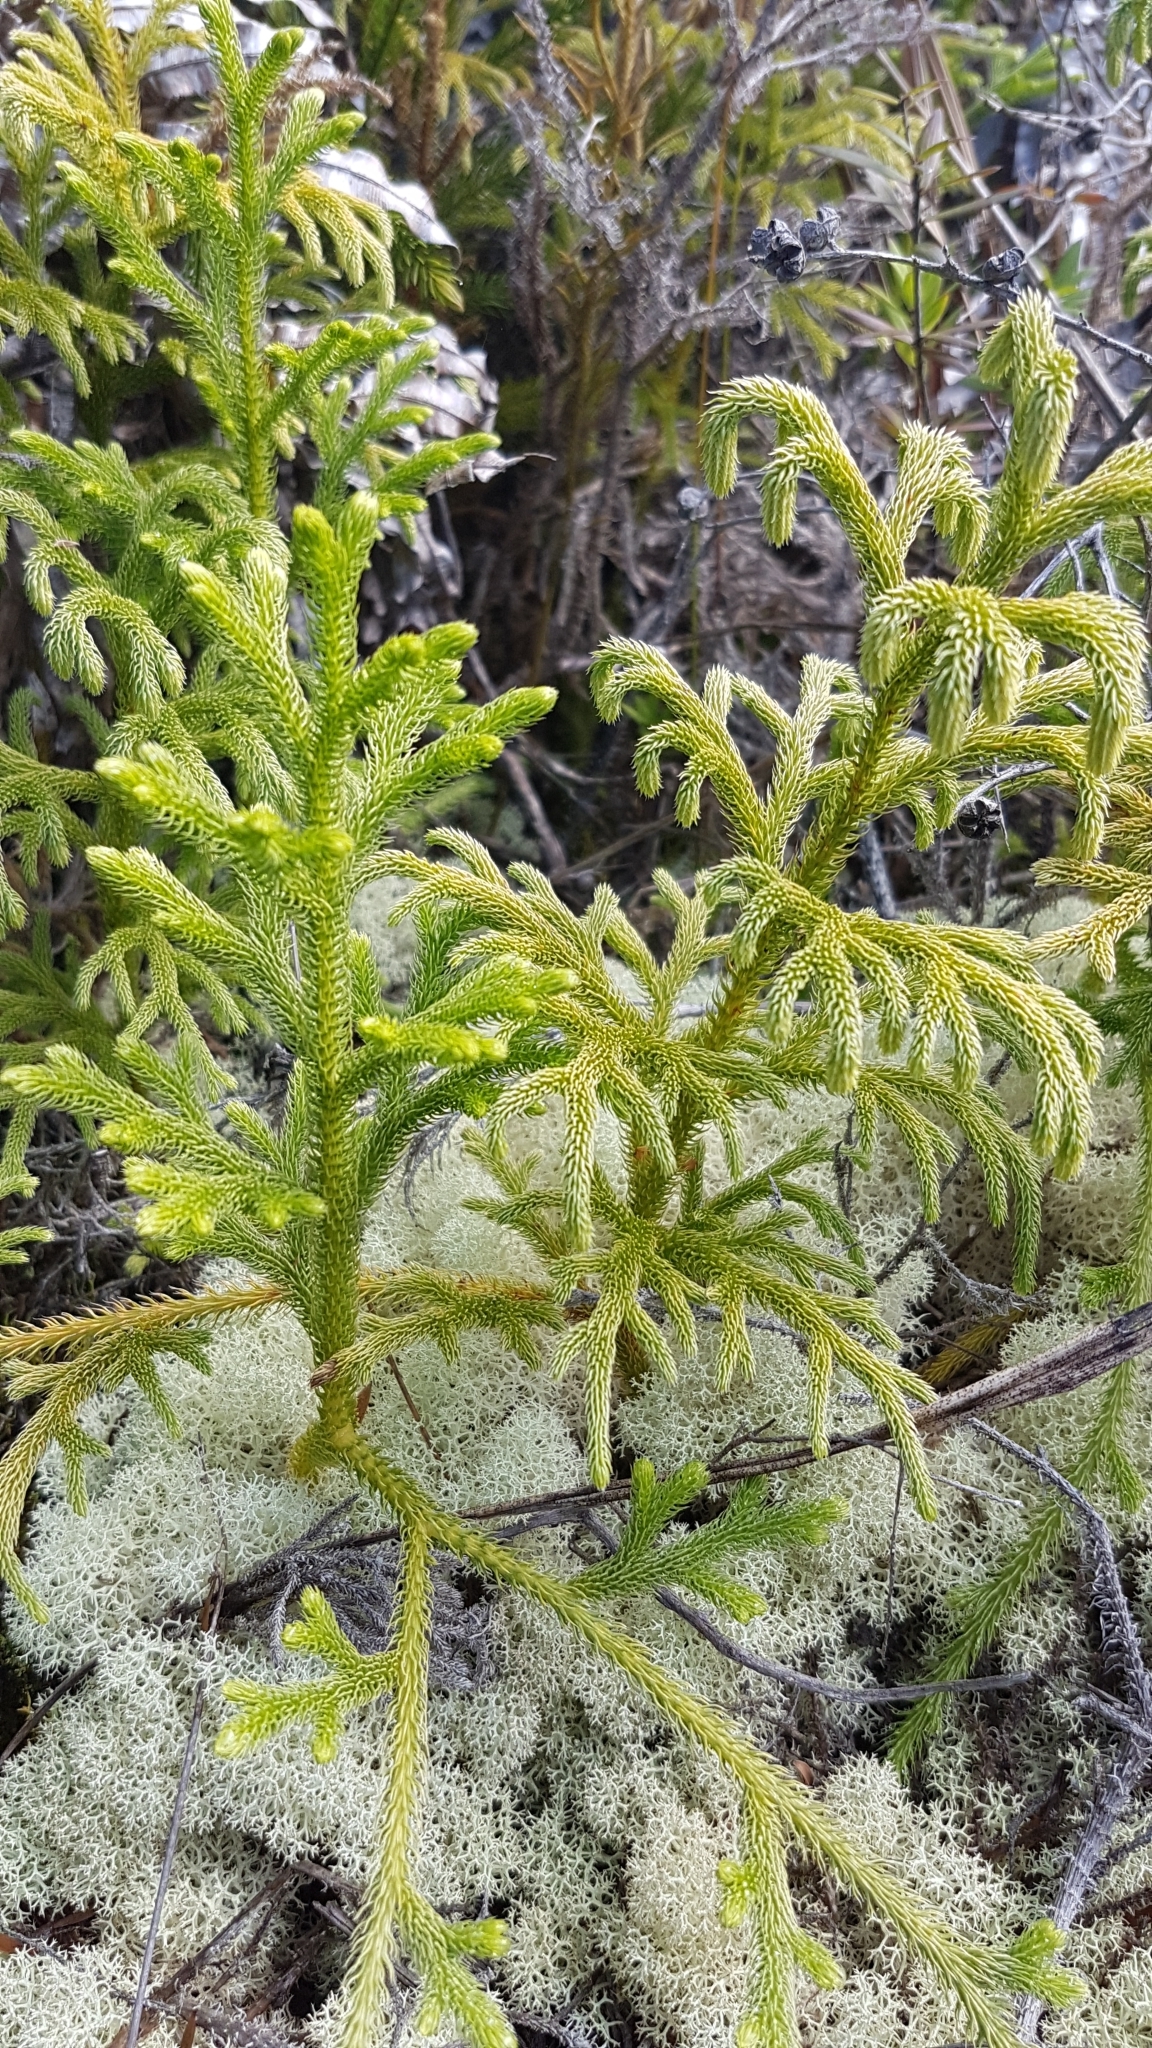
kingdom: Plantae
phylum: Tracheophyta
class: Lycopodiopsida
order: Lycopodiales
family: Lycopodiaceae
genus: Palhinhaea
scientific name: Palhinhaea cernua
